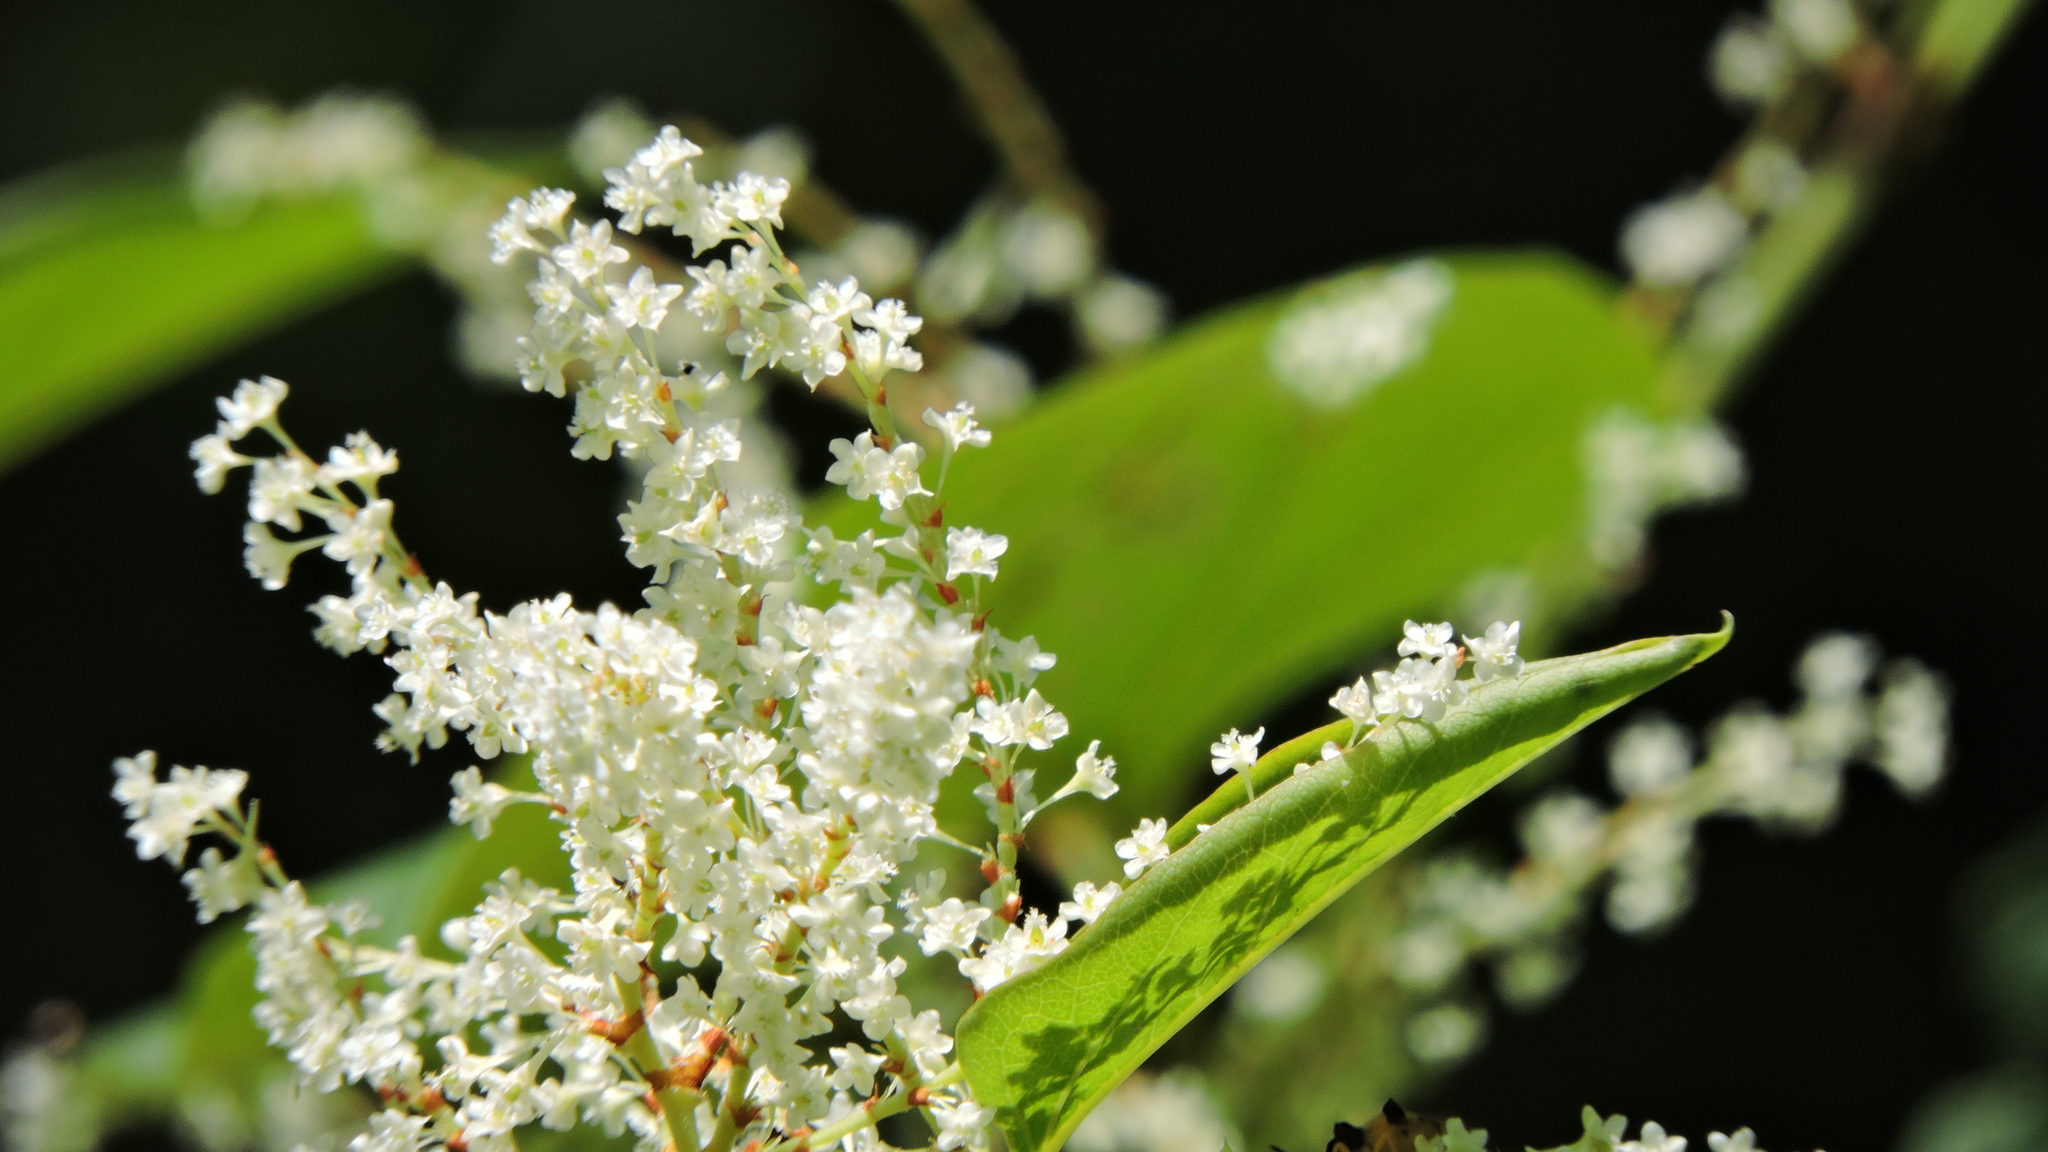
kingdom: Plantae
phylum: Tracheophyta
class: Magnoliopsida
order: Caryophyllales
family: Polygonaceae
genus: Reynoutria
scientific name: Reynoutria japonica
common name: Japanese knotweed
